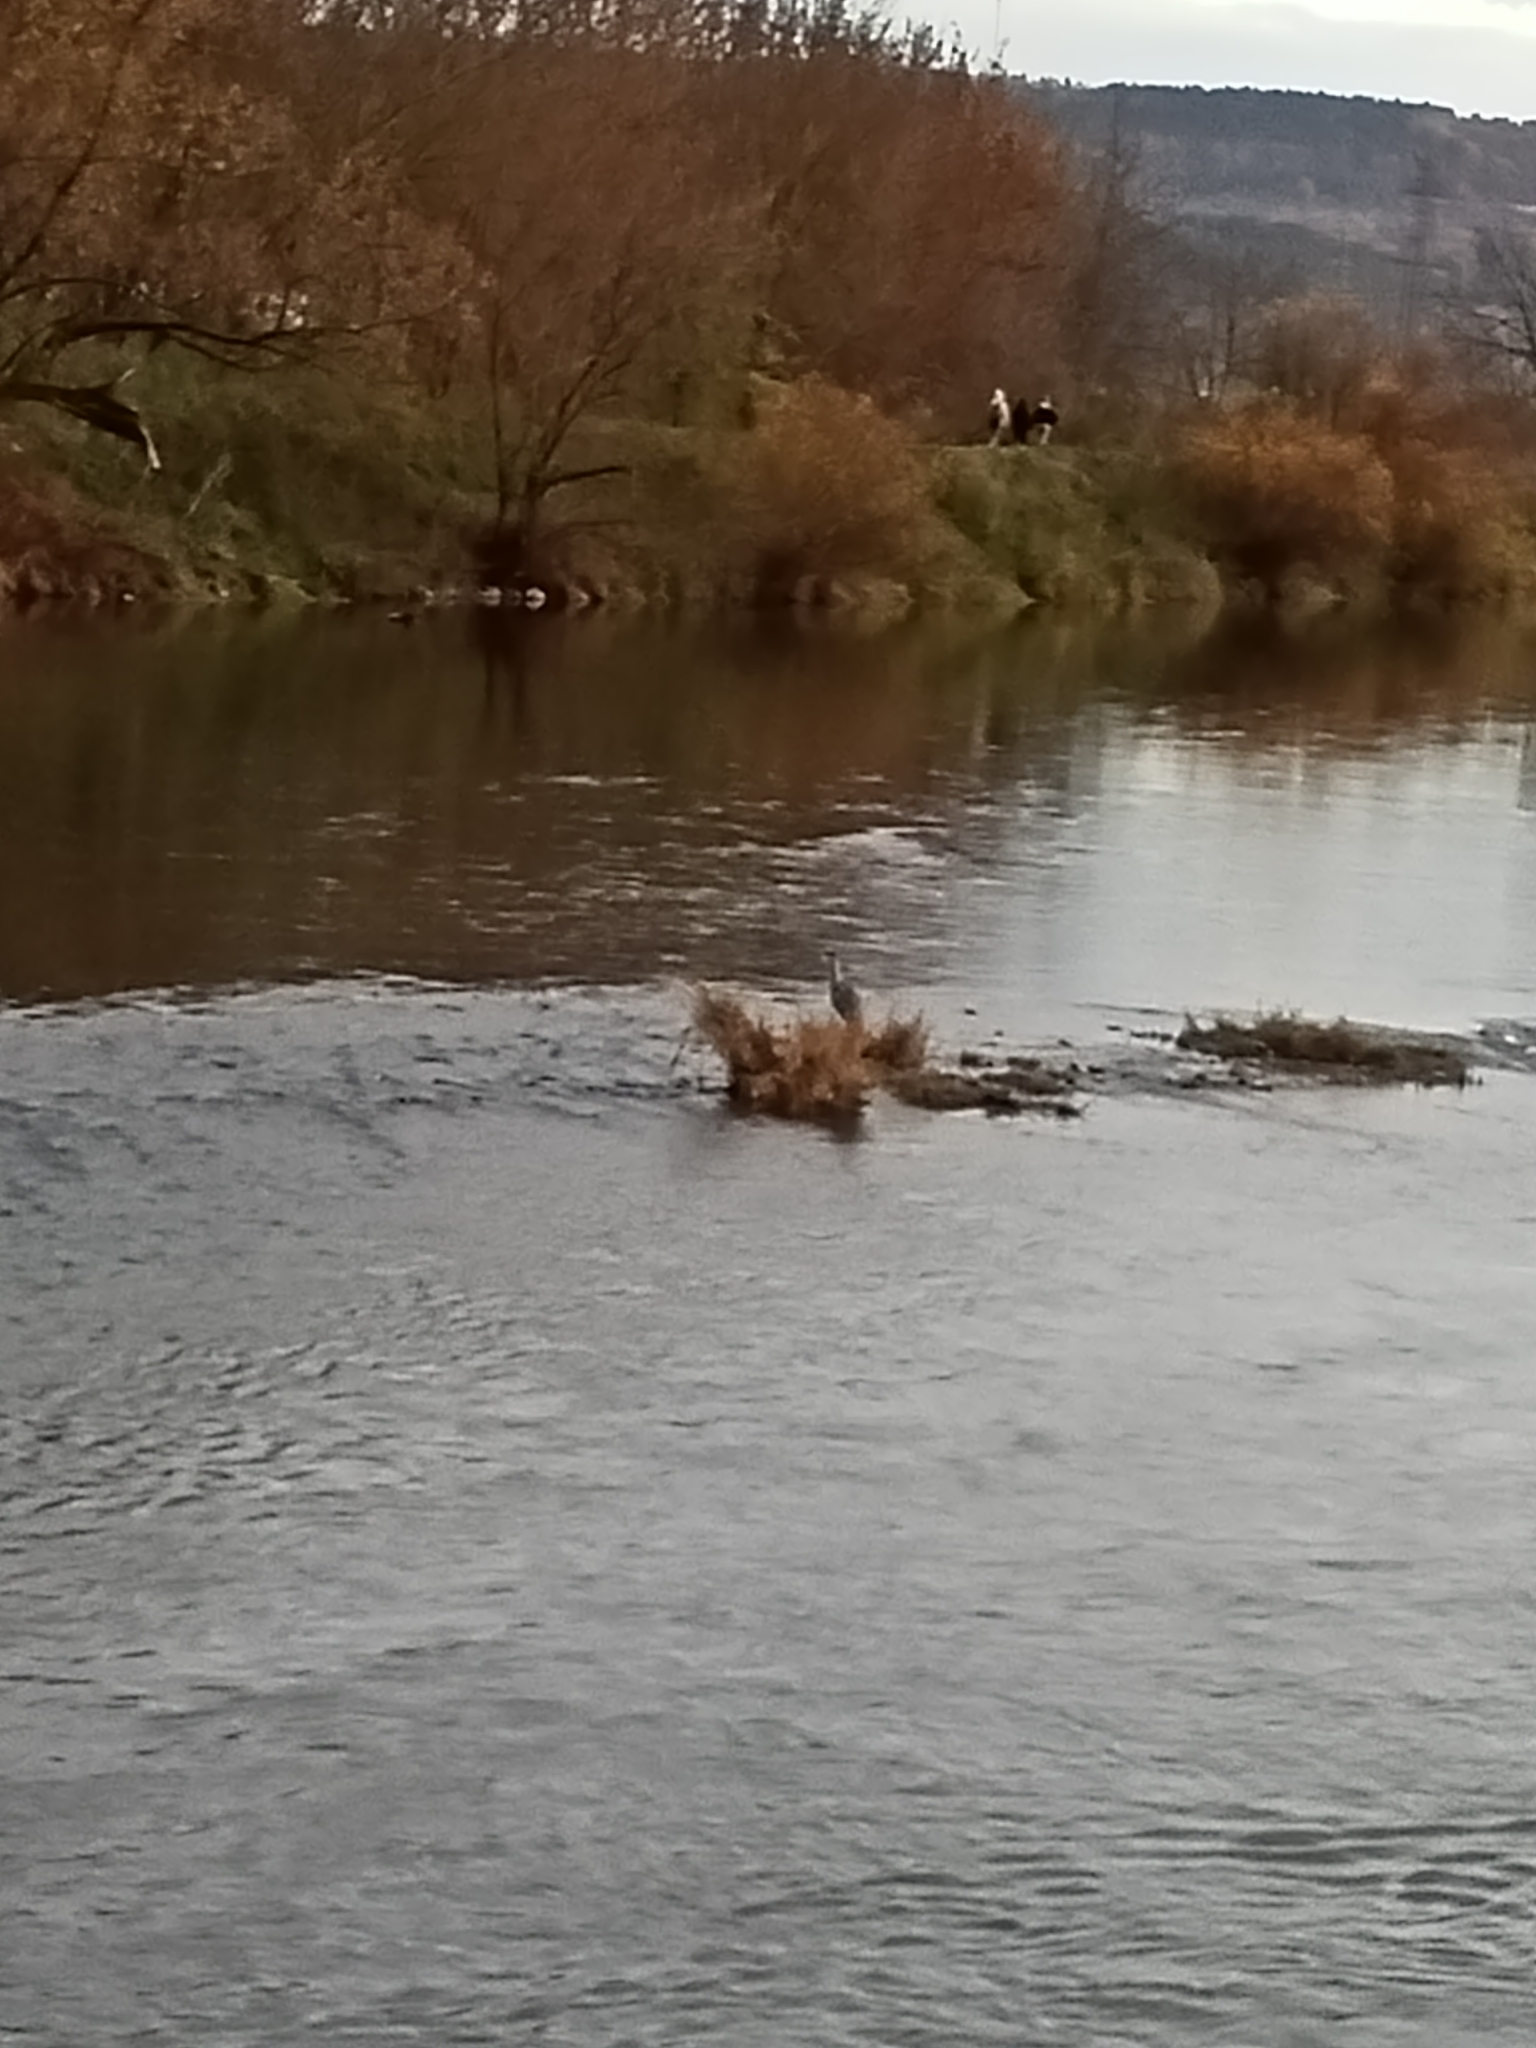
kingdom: Animalia
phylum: Chordata
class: Aves
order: Pelecaniformes
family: Ardeidae
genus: Ardea
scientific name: Ardea cinerea
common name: Grey heron
